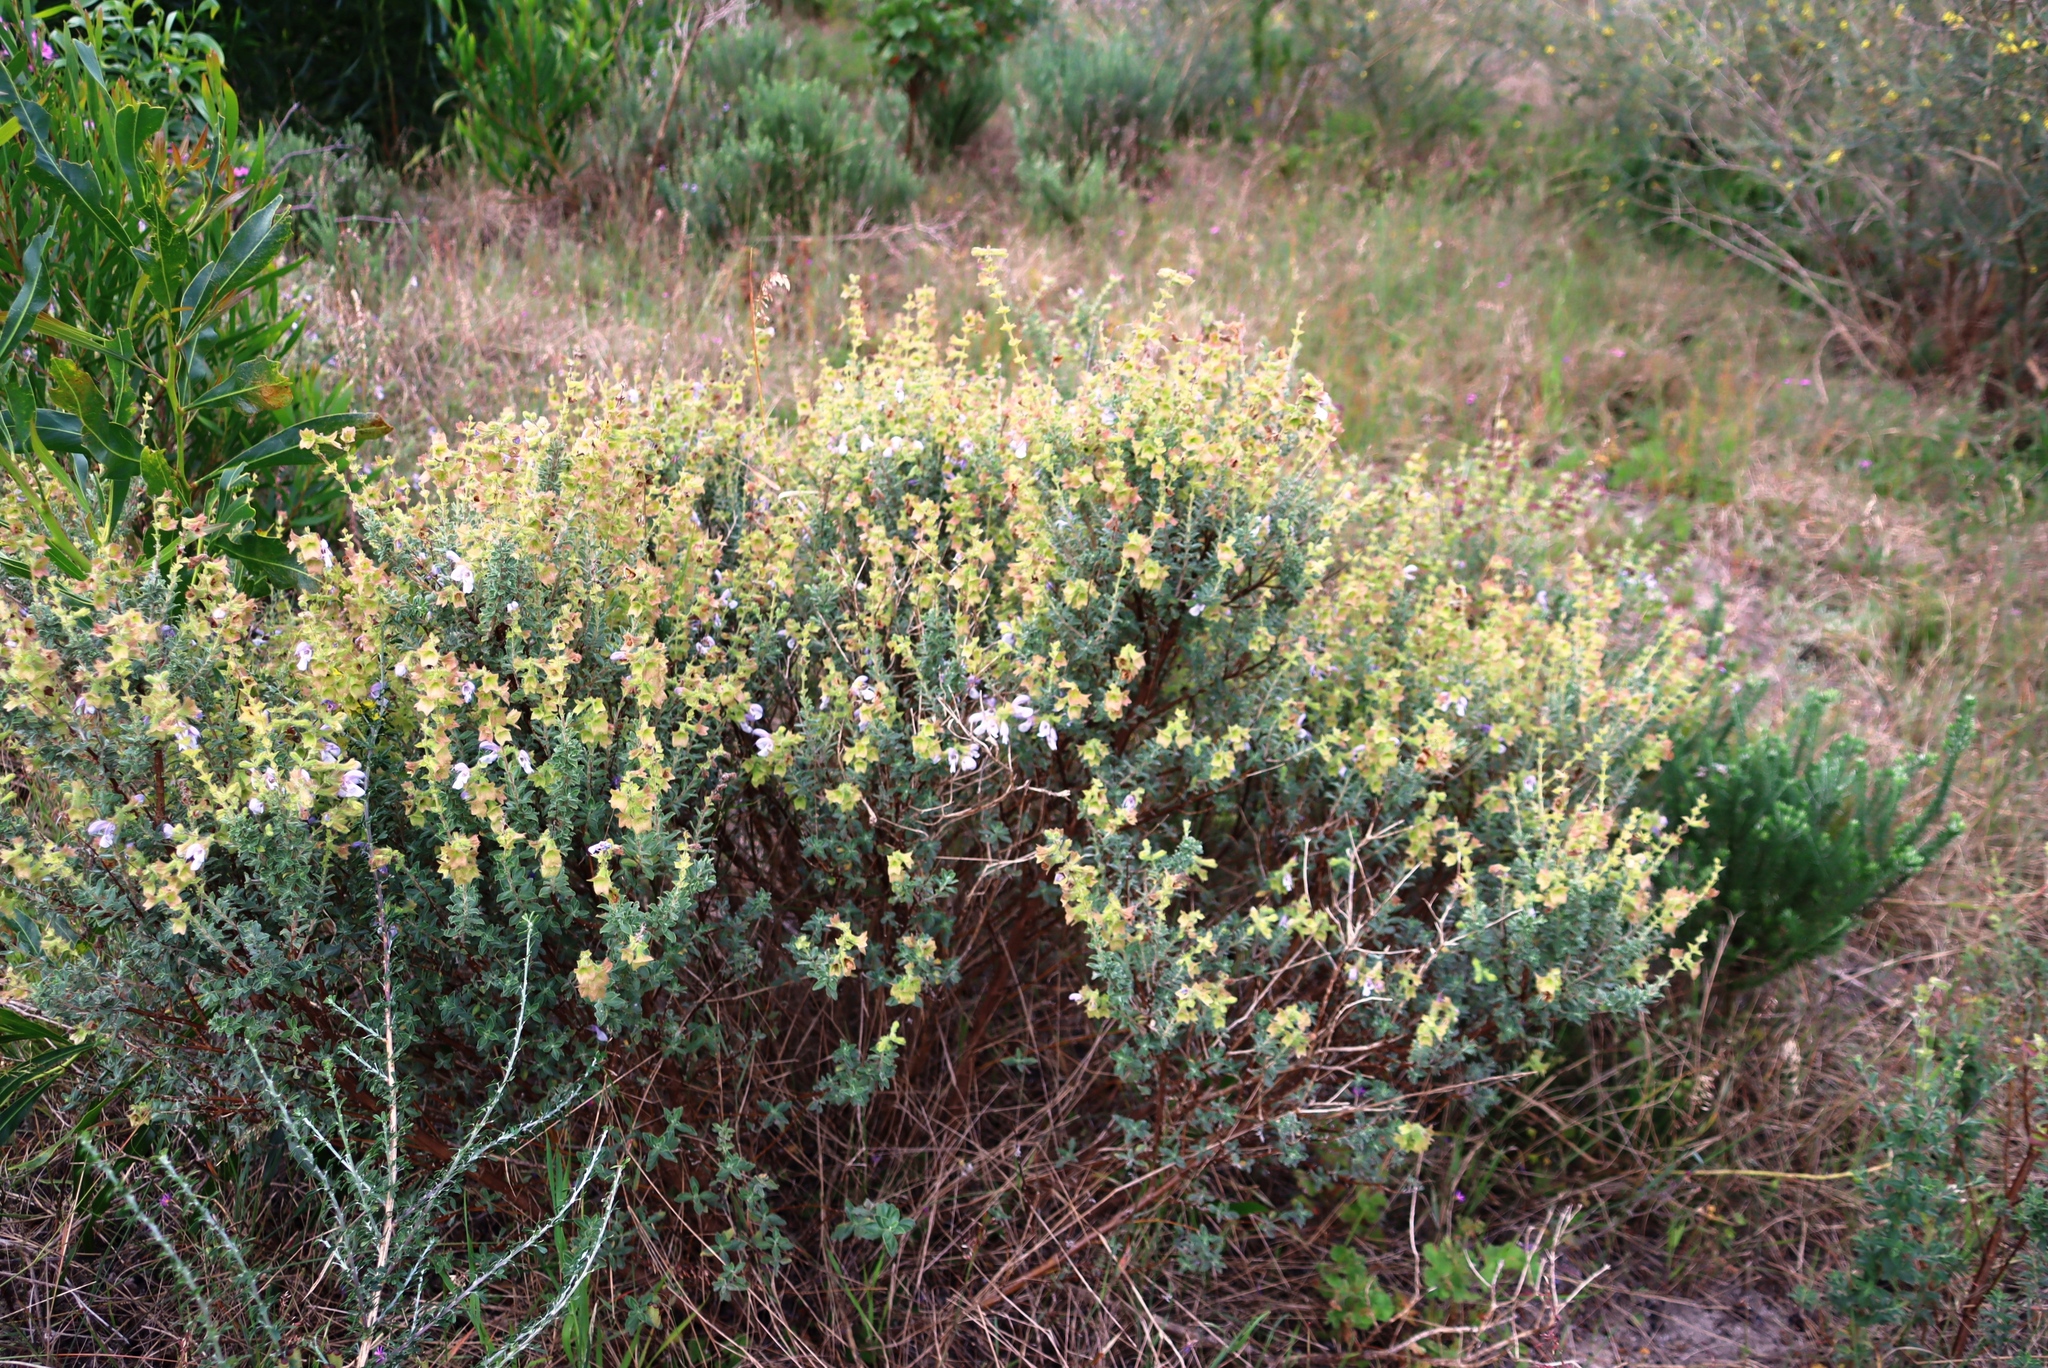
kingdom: Plantae
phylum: Tracheophyta
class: Magnoliopsida
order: Lamiales
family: Lamiaceae
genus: Salvia
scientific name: Salvia africana
